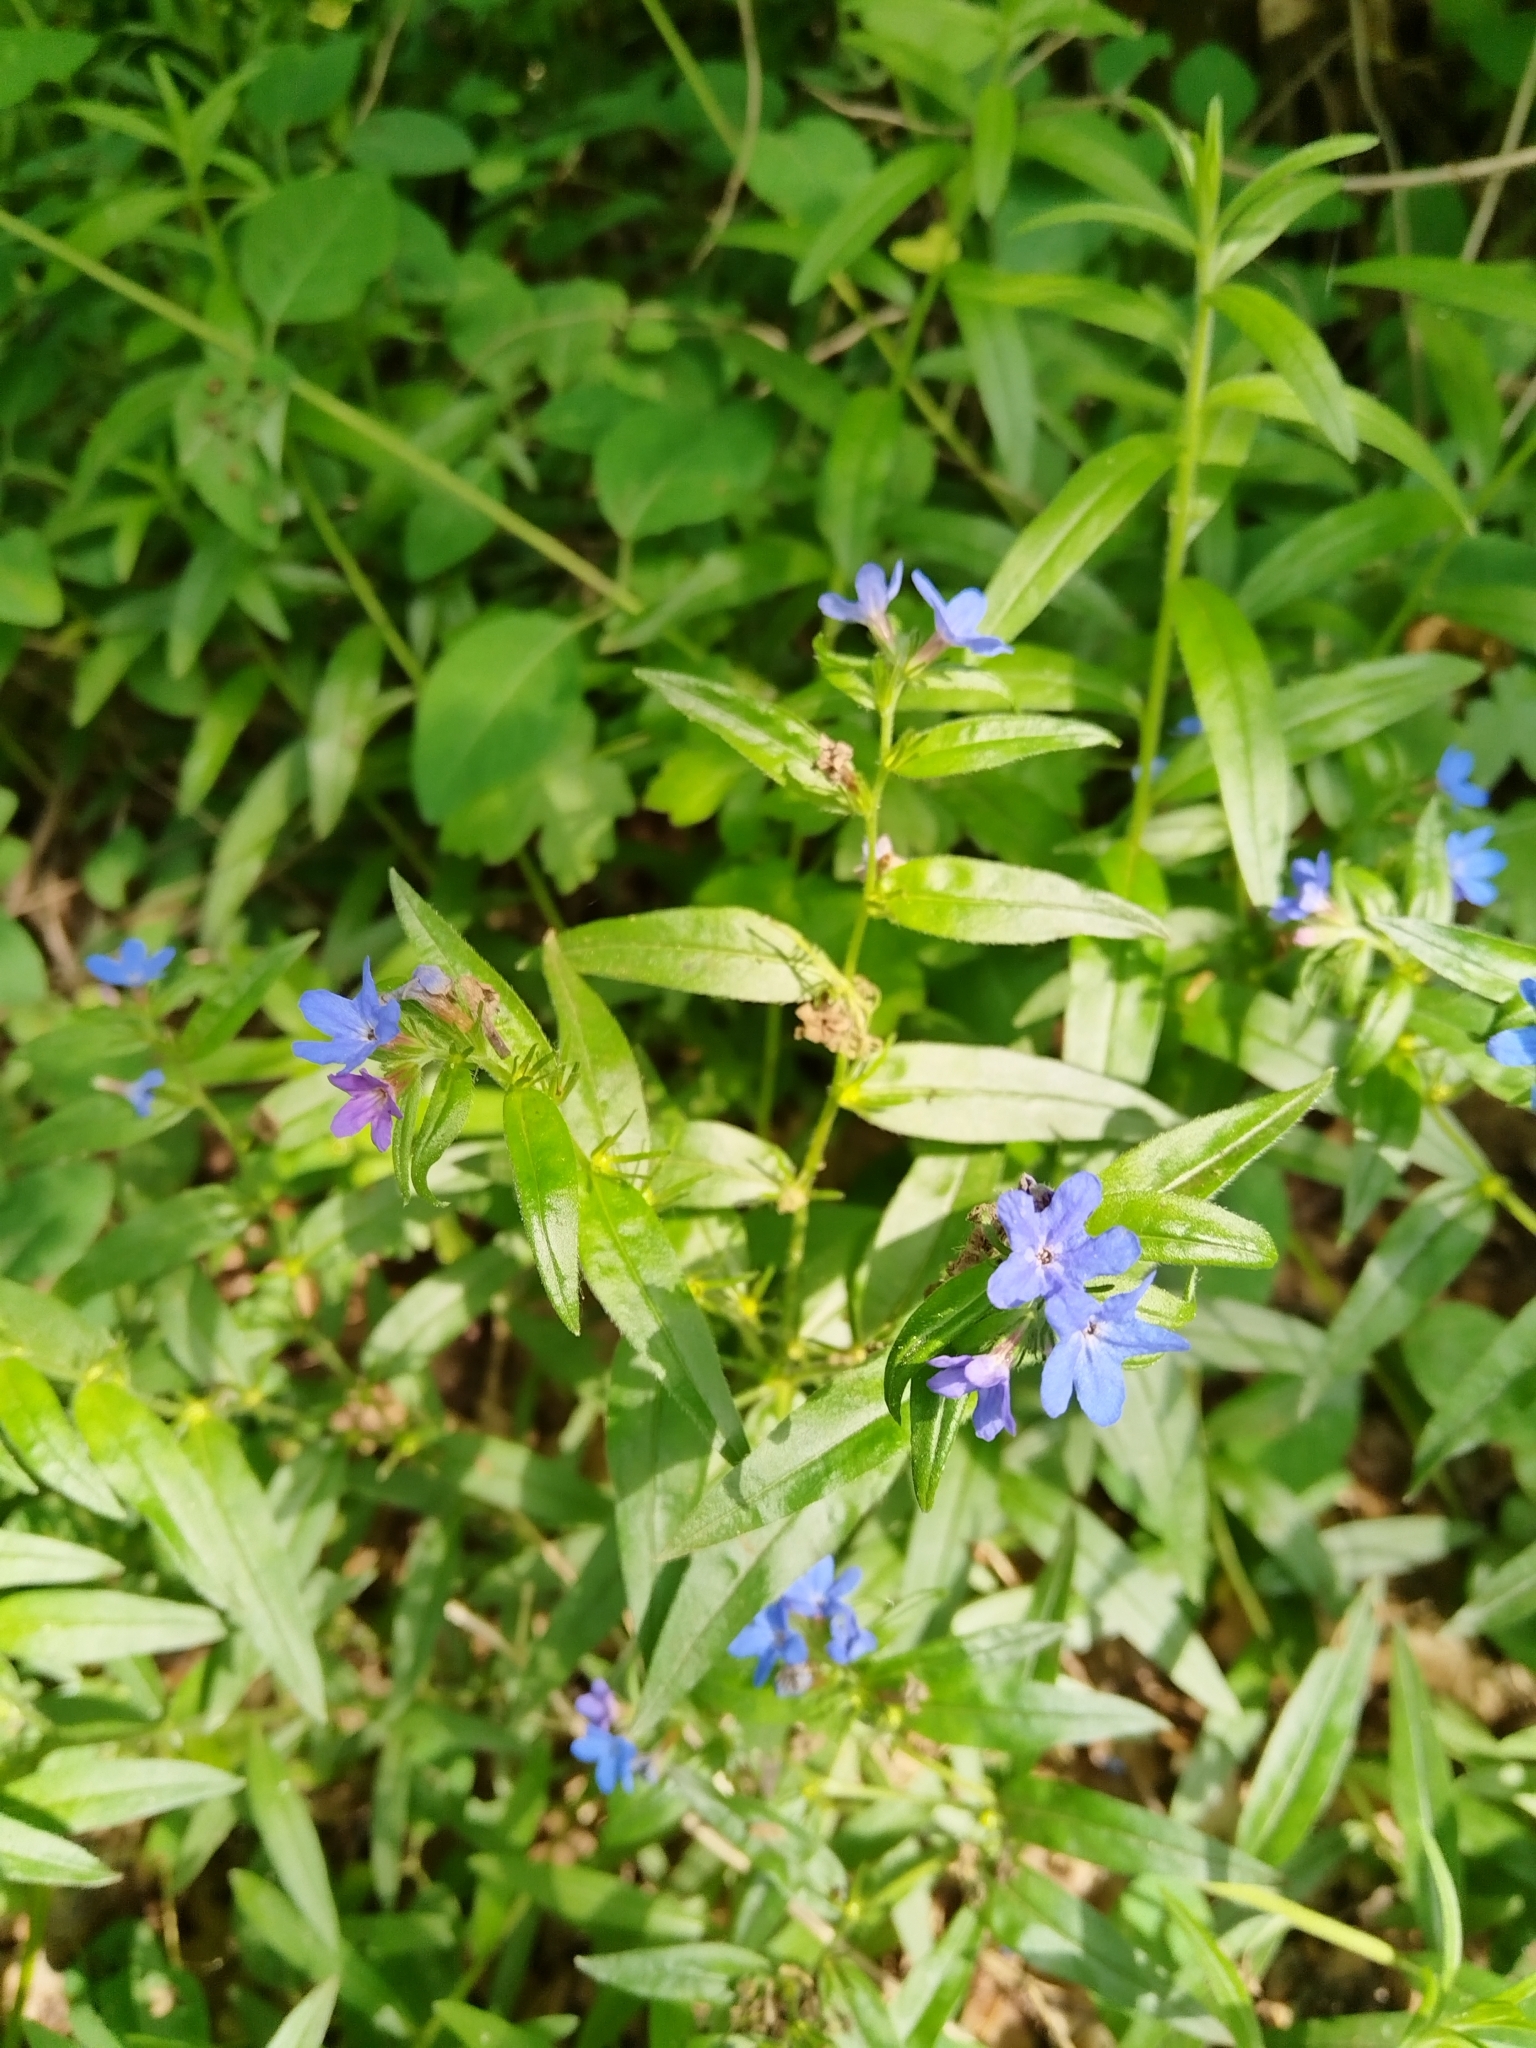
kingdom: Plantae
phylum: Tracheophyta
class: Magnoliopsida
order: Boraginales
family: Boraginaceae
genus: Aegonychon
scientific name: Aegonychon purpurocaeruleum
